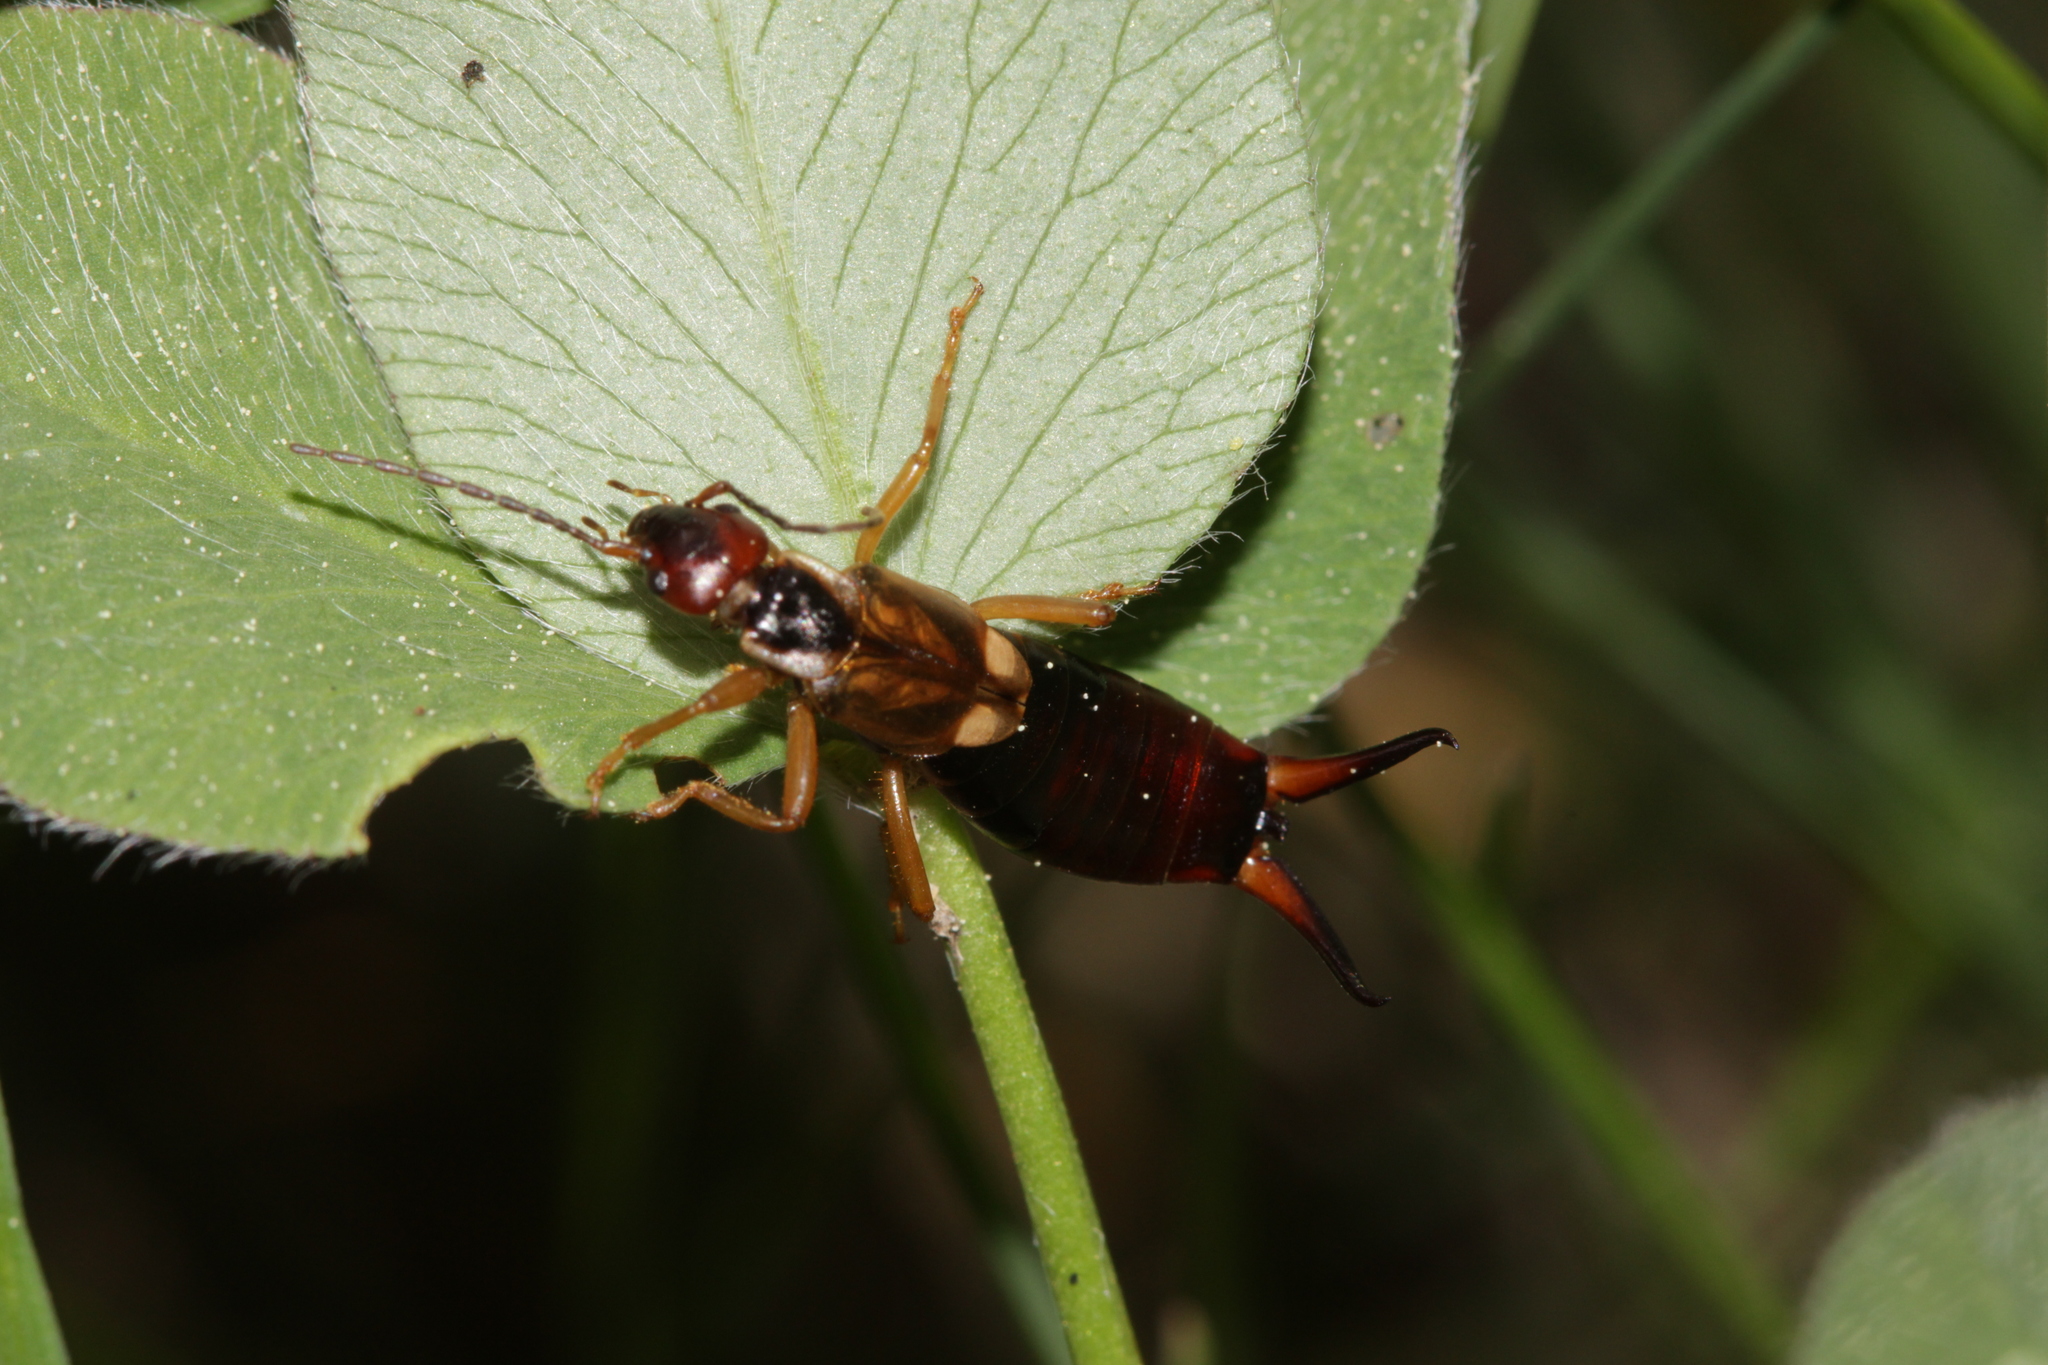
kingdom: Animalia
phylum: Arthropoda
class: Insecta
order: Dermaptera
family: Forficulidae
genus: Forficula
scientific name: Forficula
